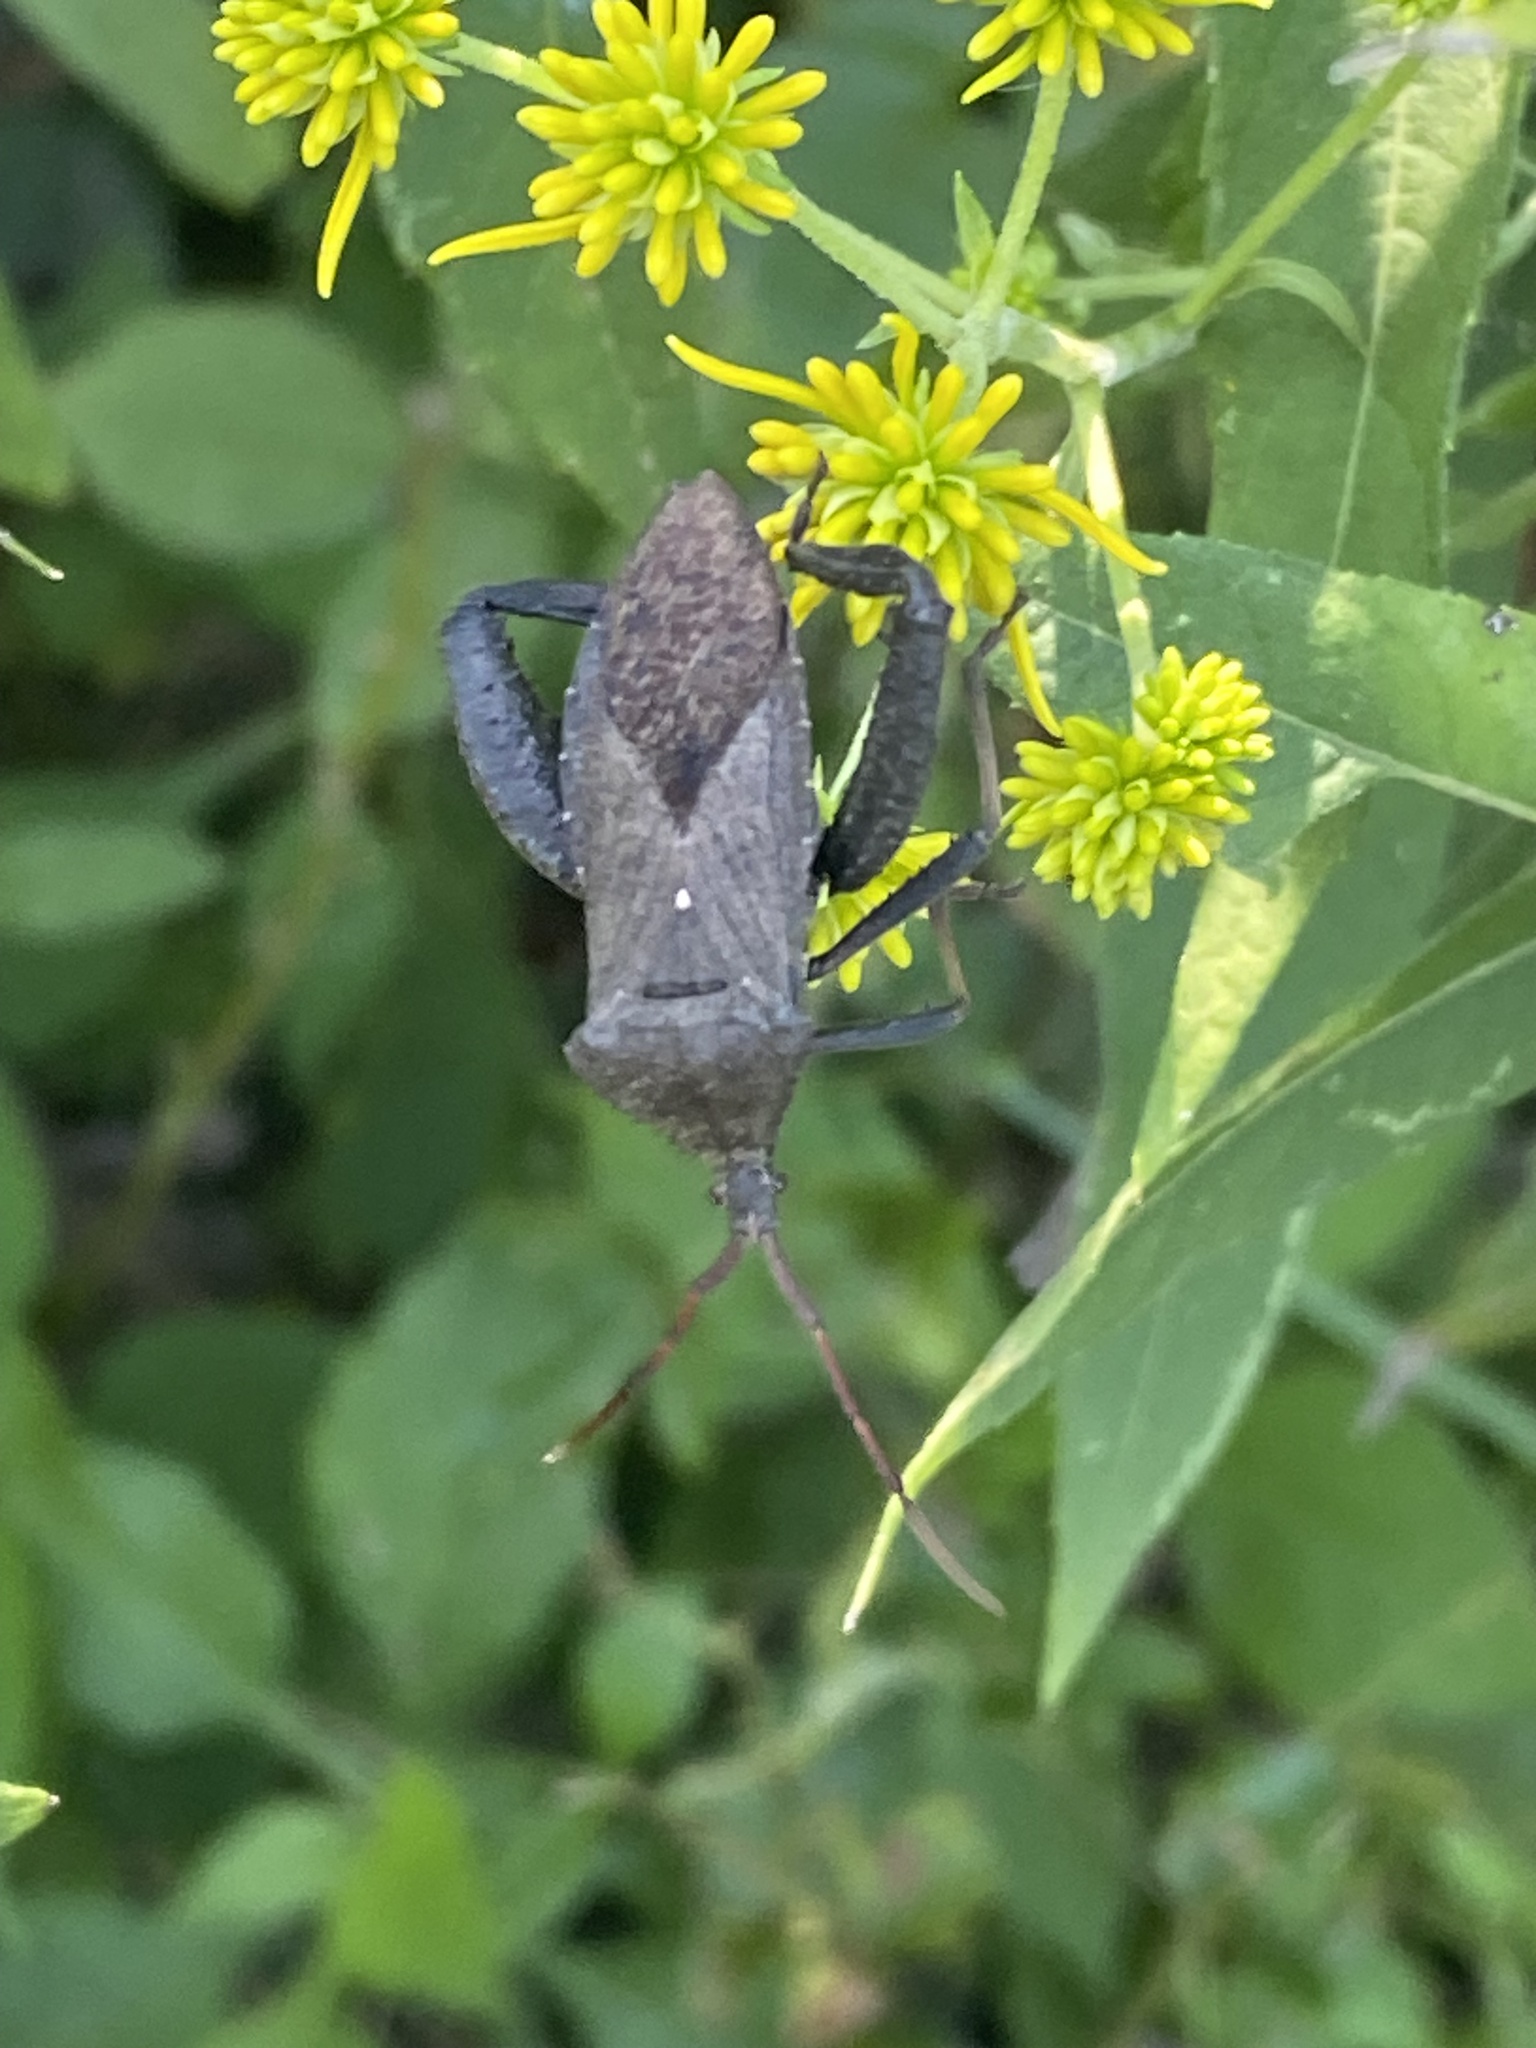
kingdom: Animalia
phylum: Arthropoda
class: Insecta
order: Hemiptera
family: Coreidae
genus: Acanthocephala
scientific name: Acanthocephala femorata
